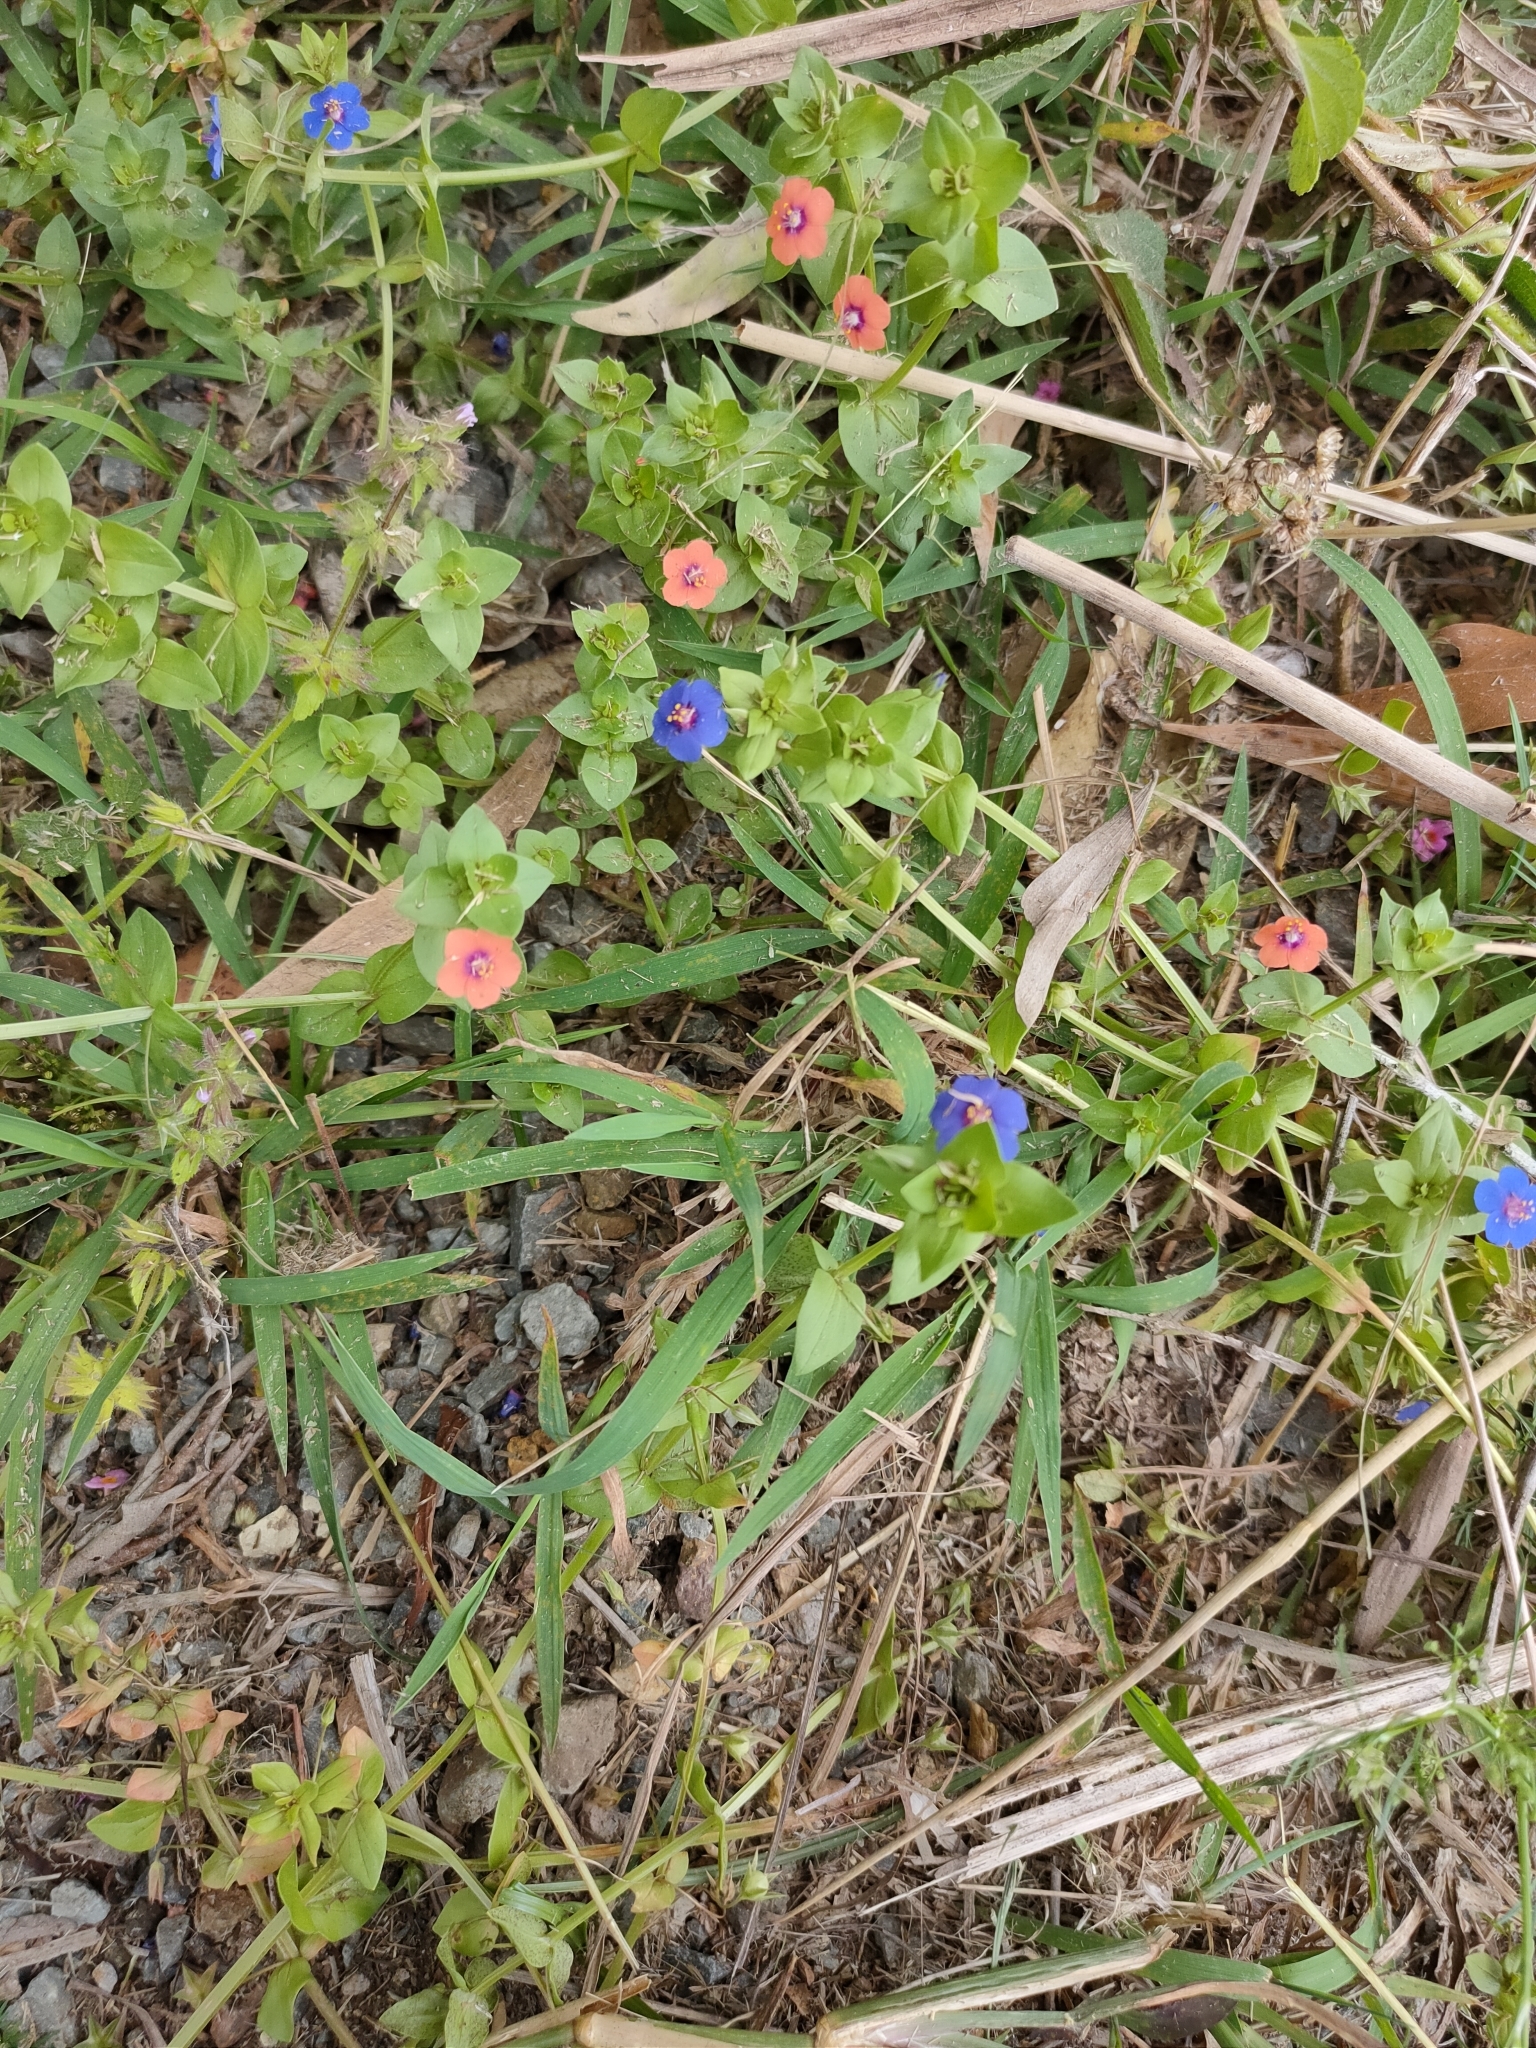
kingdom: Plantae
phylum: Tracheophyta
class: Magnoliopsida
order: Ericales
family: Primulaceae
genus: Lysimachia
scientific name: Lysimachia arvensis
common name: Scarlet pimpernel
